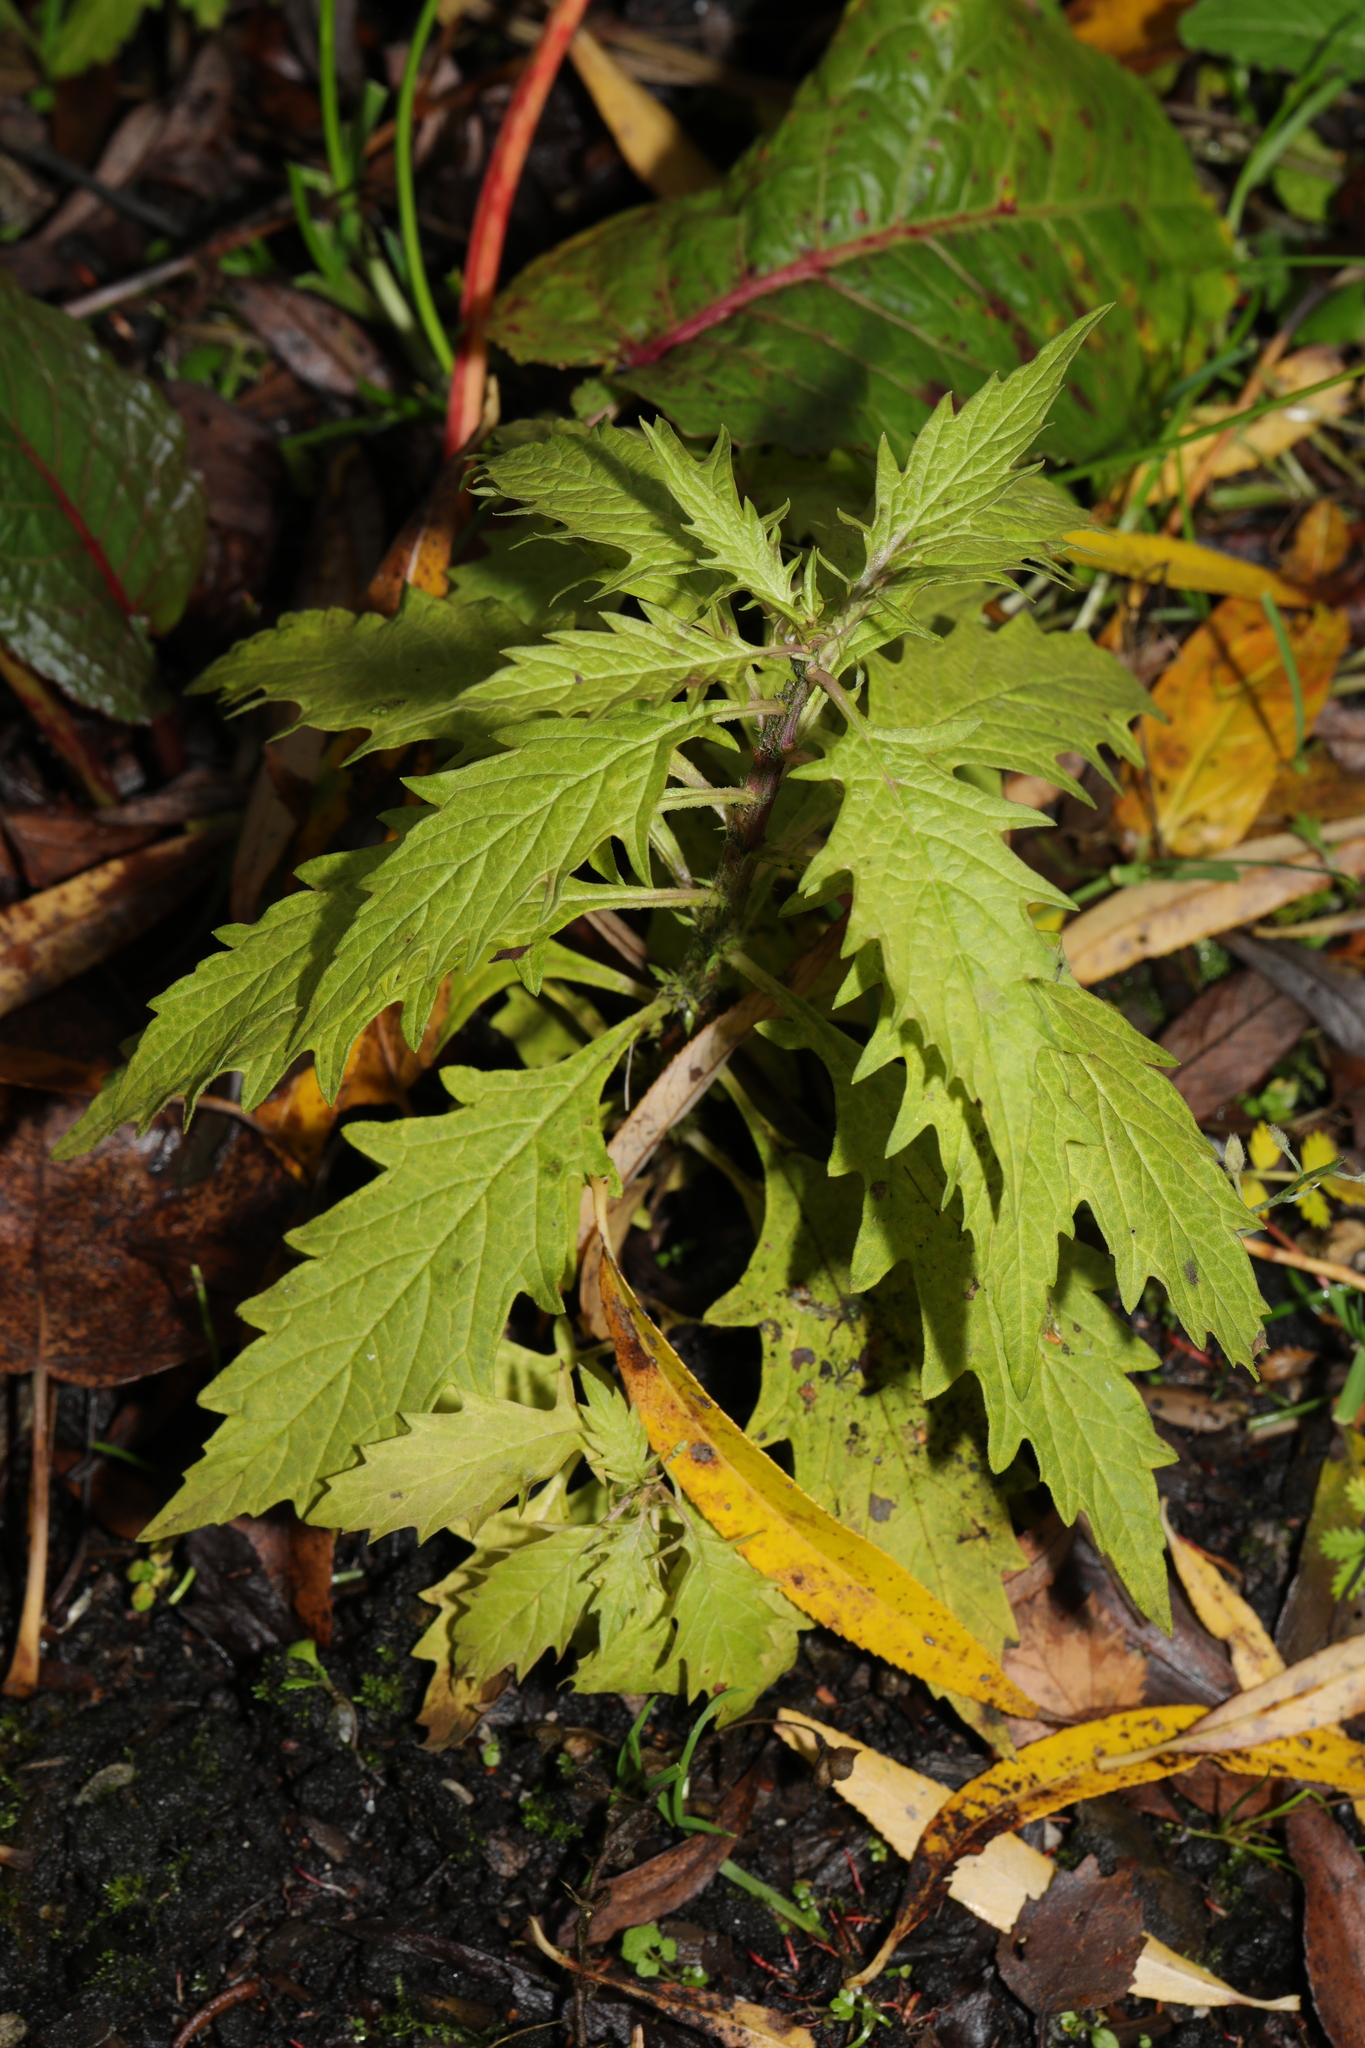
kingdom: Plantae
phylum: Tracheophyta
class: Magnoliopsida
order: Lamiales
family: Lamiaceae
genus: Lycopus
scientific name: Lycopus europaeus
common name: European bugleweed
